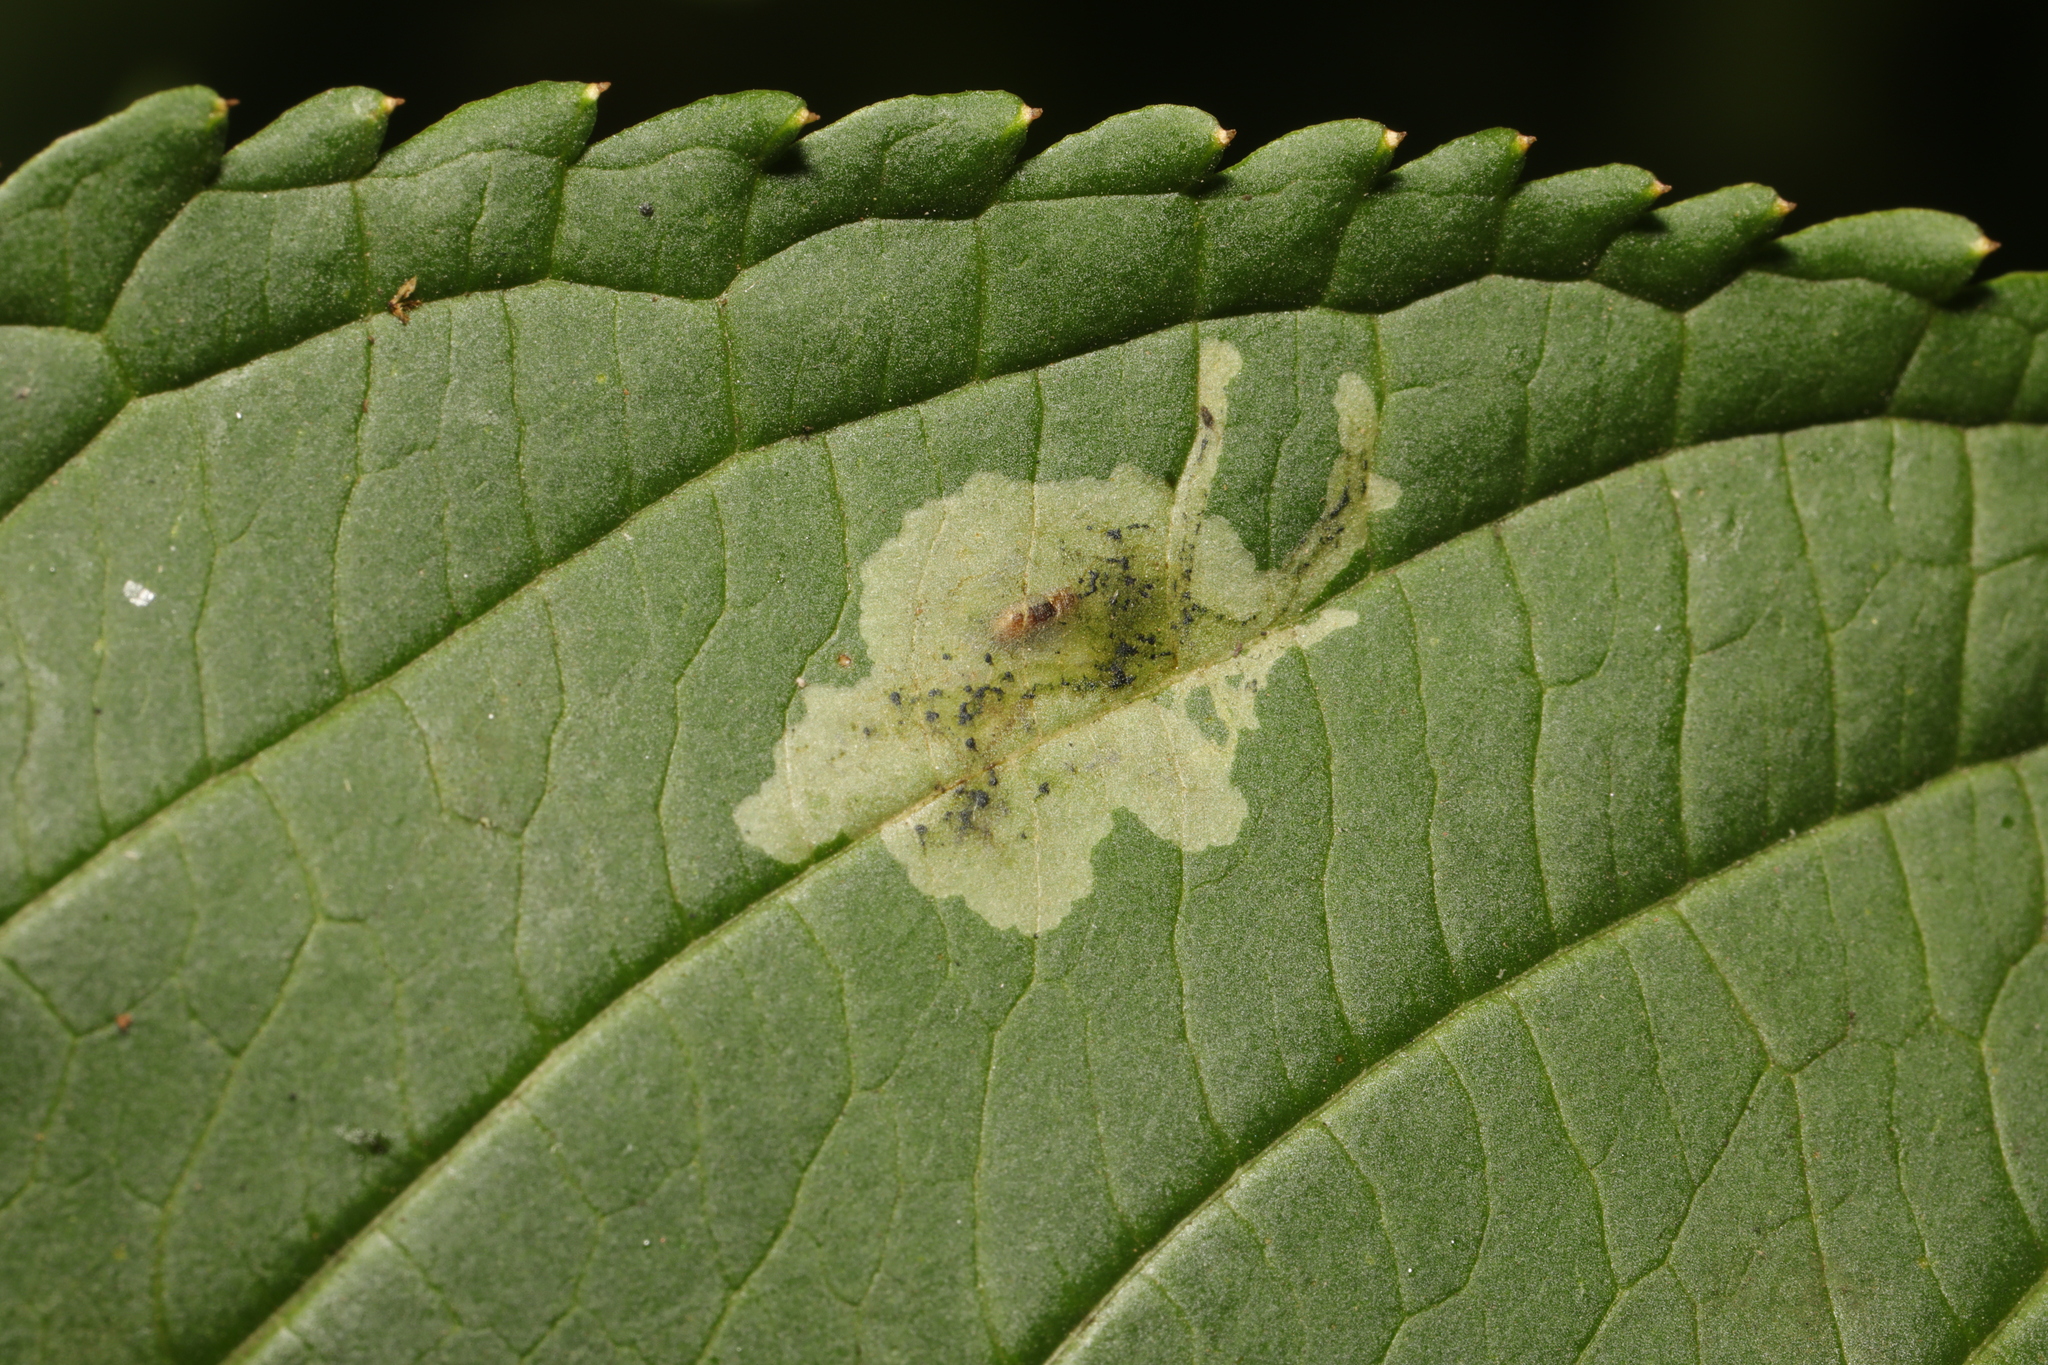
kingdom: Animalia
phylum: Arthropoda
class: Insecta
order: Diptera
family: Agromyzidae
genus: Phytoliriomyza
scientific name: Phytoliriomyza melampyga
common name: Jewelweed leaf-miner fly
